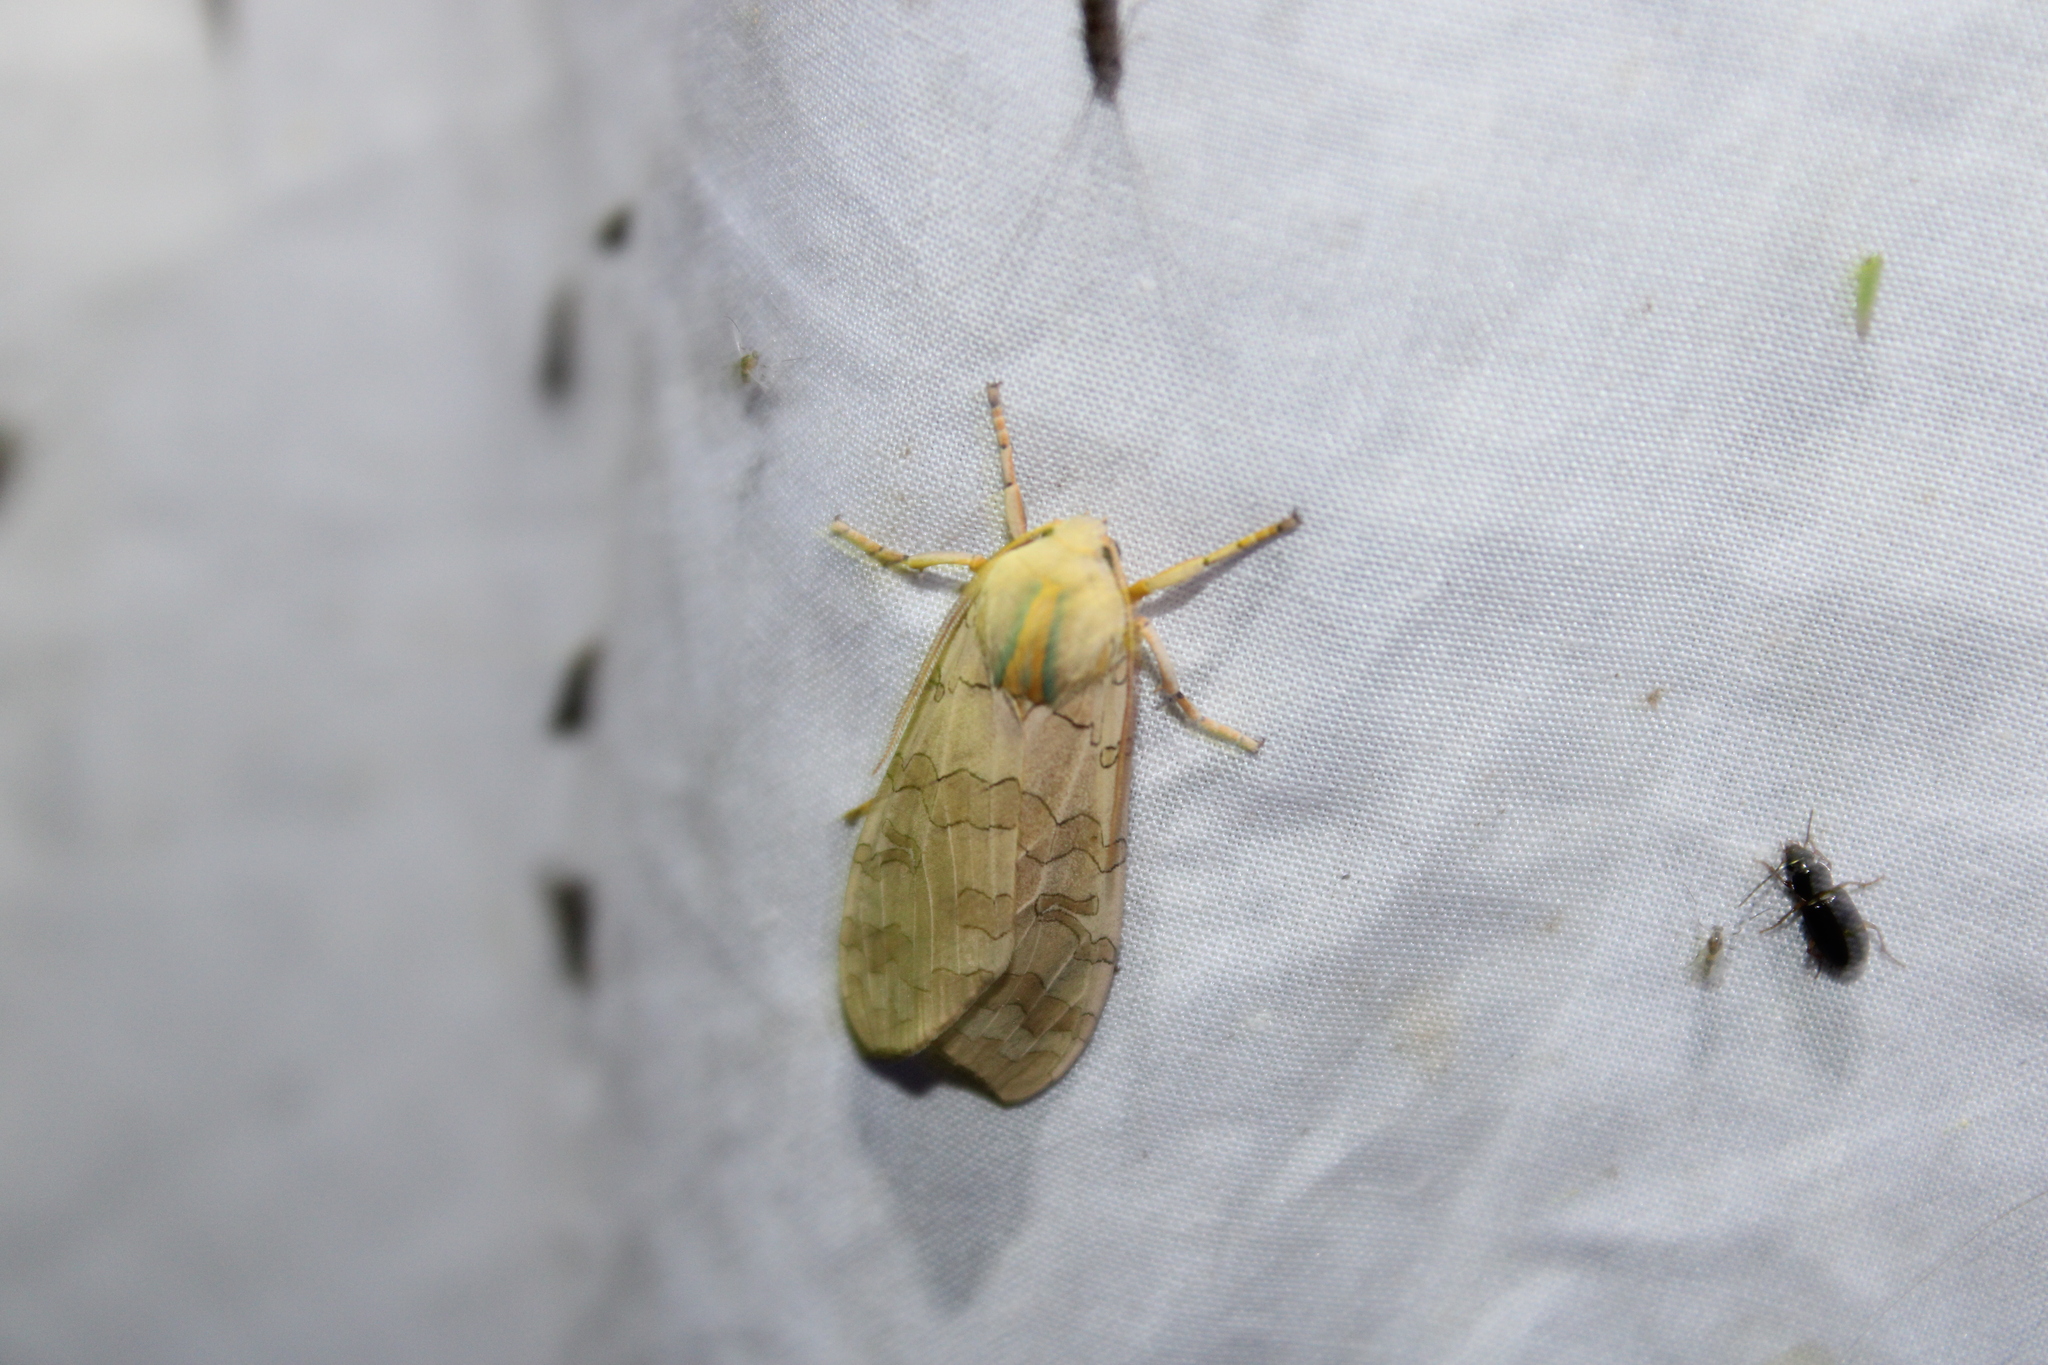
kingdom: Animalia
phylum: Arthropoda
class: Insecta
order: Lepidoptera
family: Erebidae
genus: Halysidota
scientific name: Halysidota
